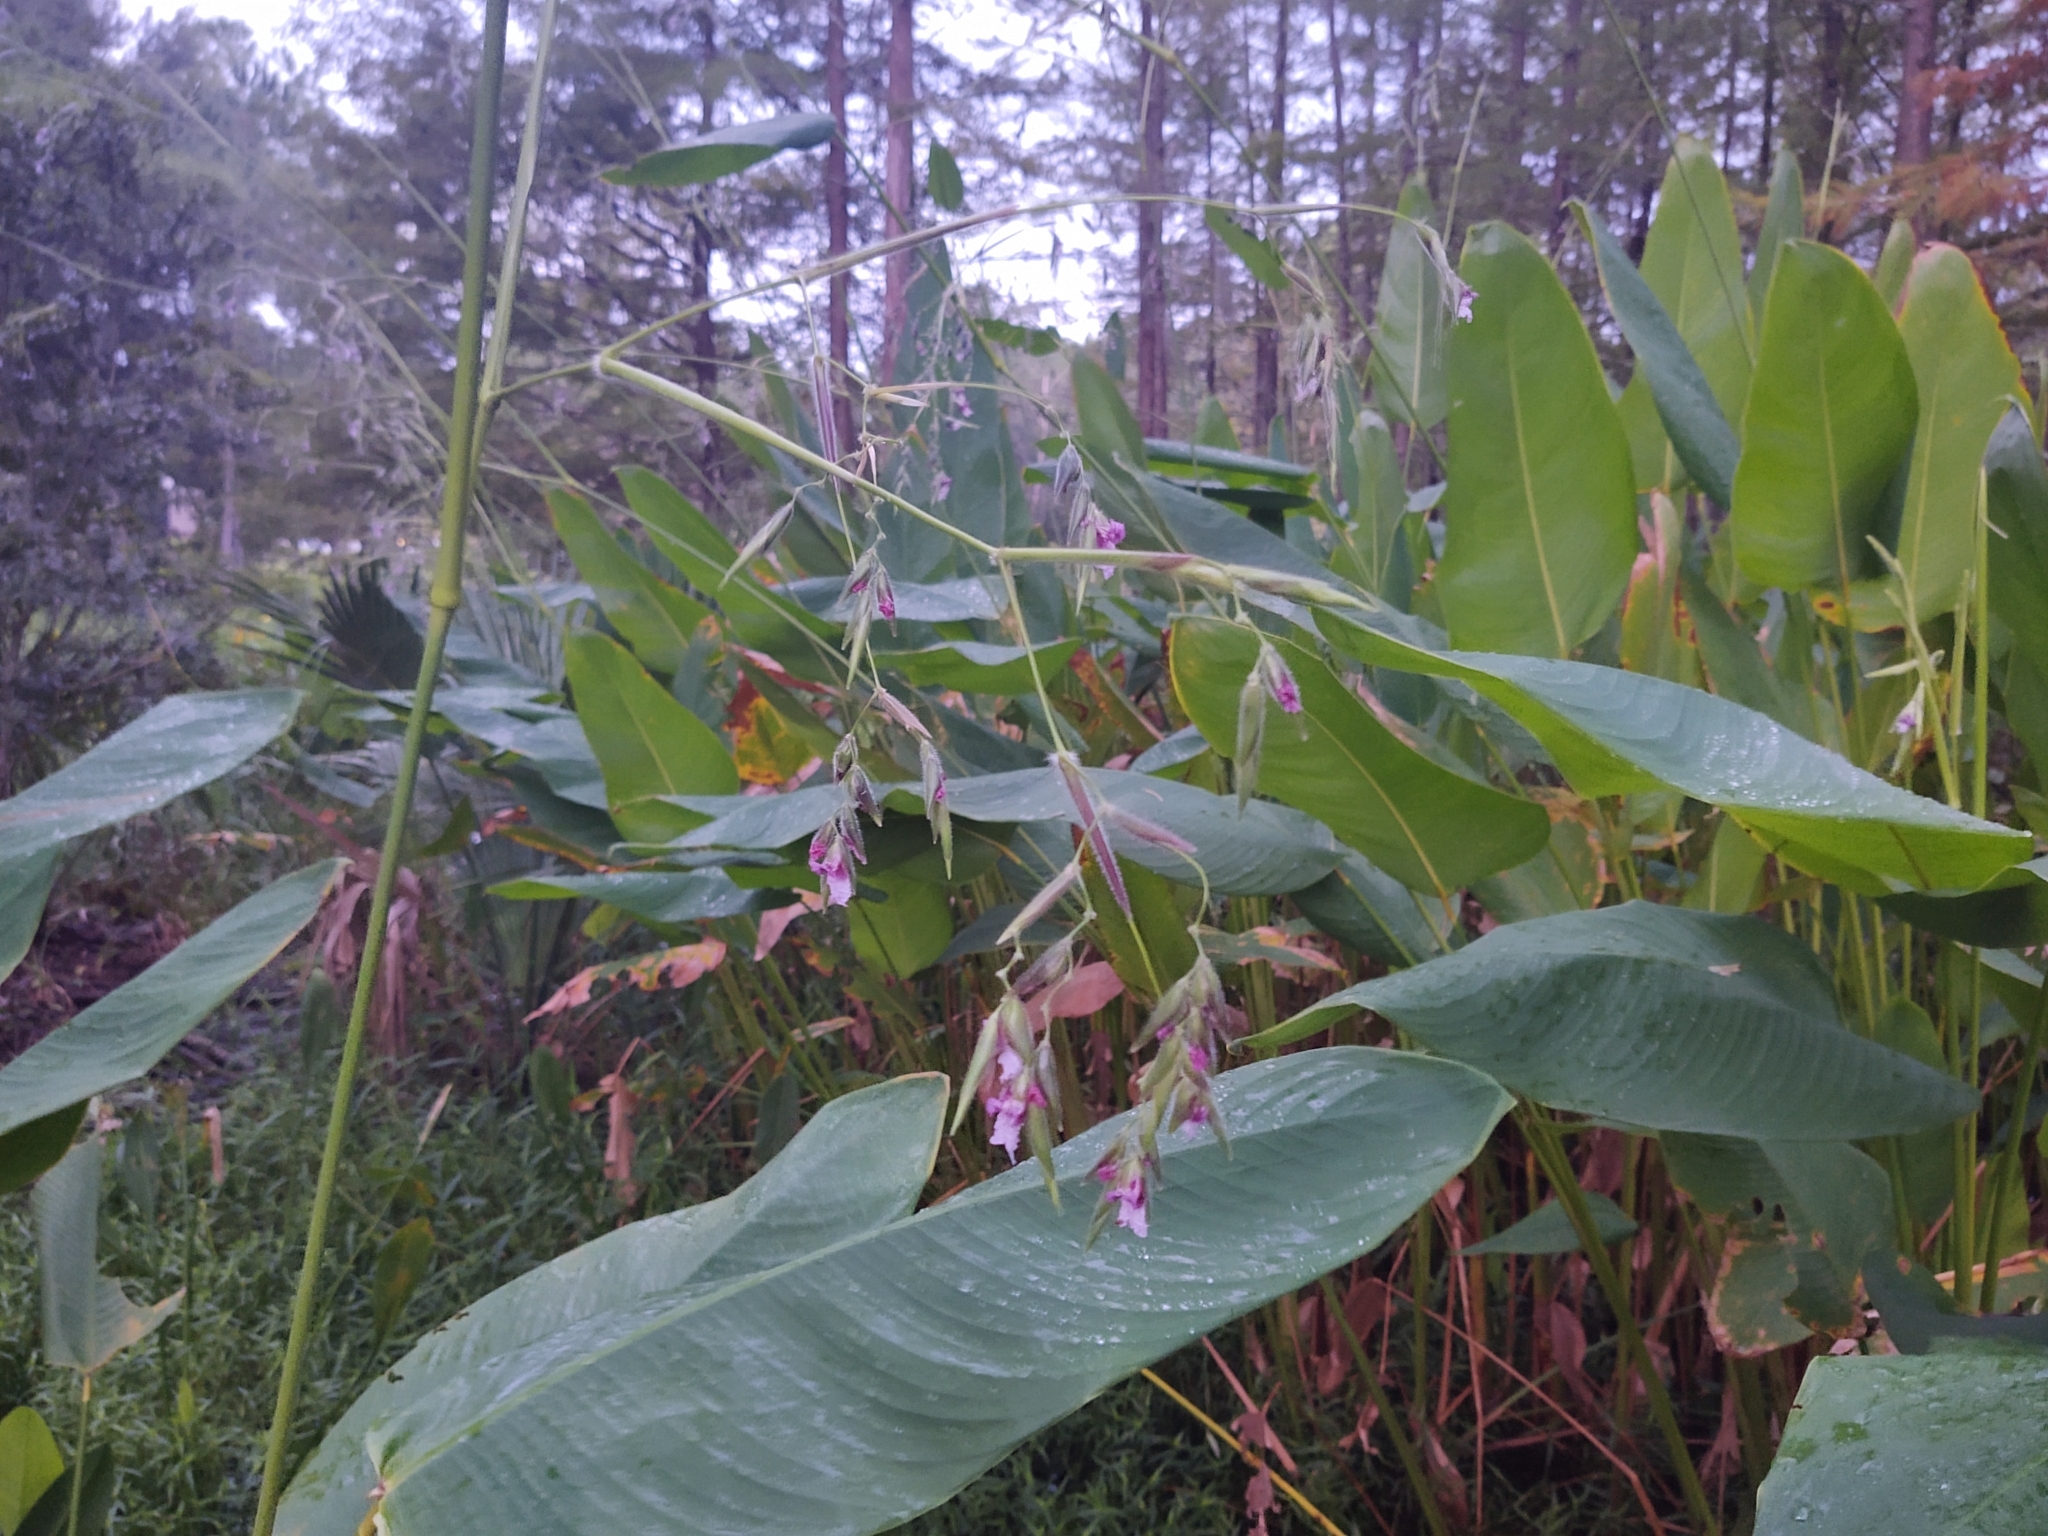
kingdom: Plantae
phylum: Tracheophyta
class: Liliopsida
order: Zingiberales
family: Marantaceae
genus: Thalia
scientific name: Thalia geniculata
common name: Arrowroot
